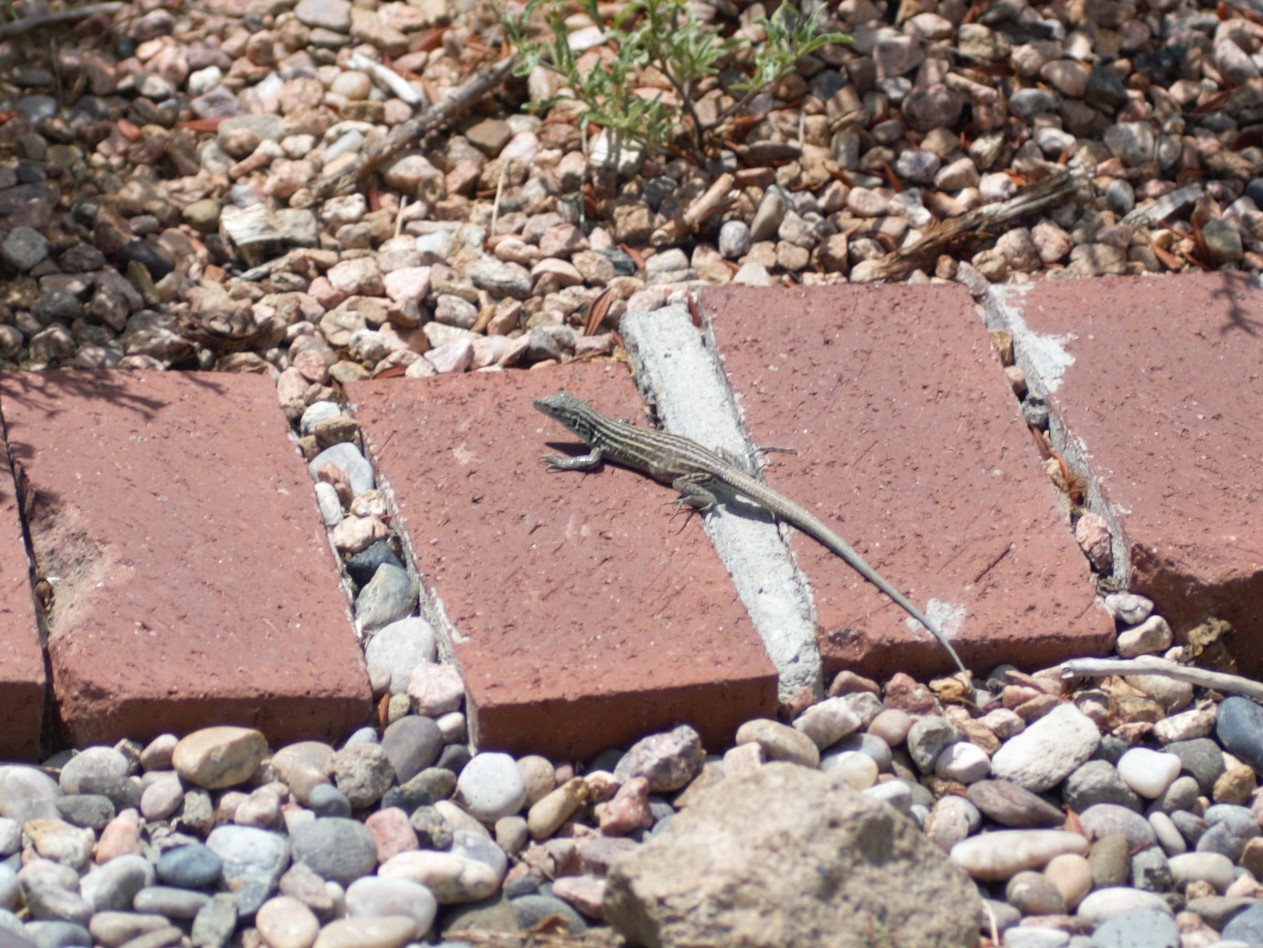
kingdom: Animalia
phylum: Chordata
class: Squamata
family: Teiidae
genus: Aspidoscelis
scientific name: Aspidoscelis neomexicanus
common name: New mexico whiptail
